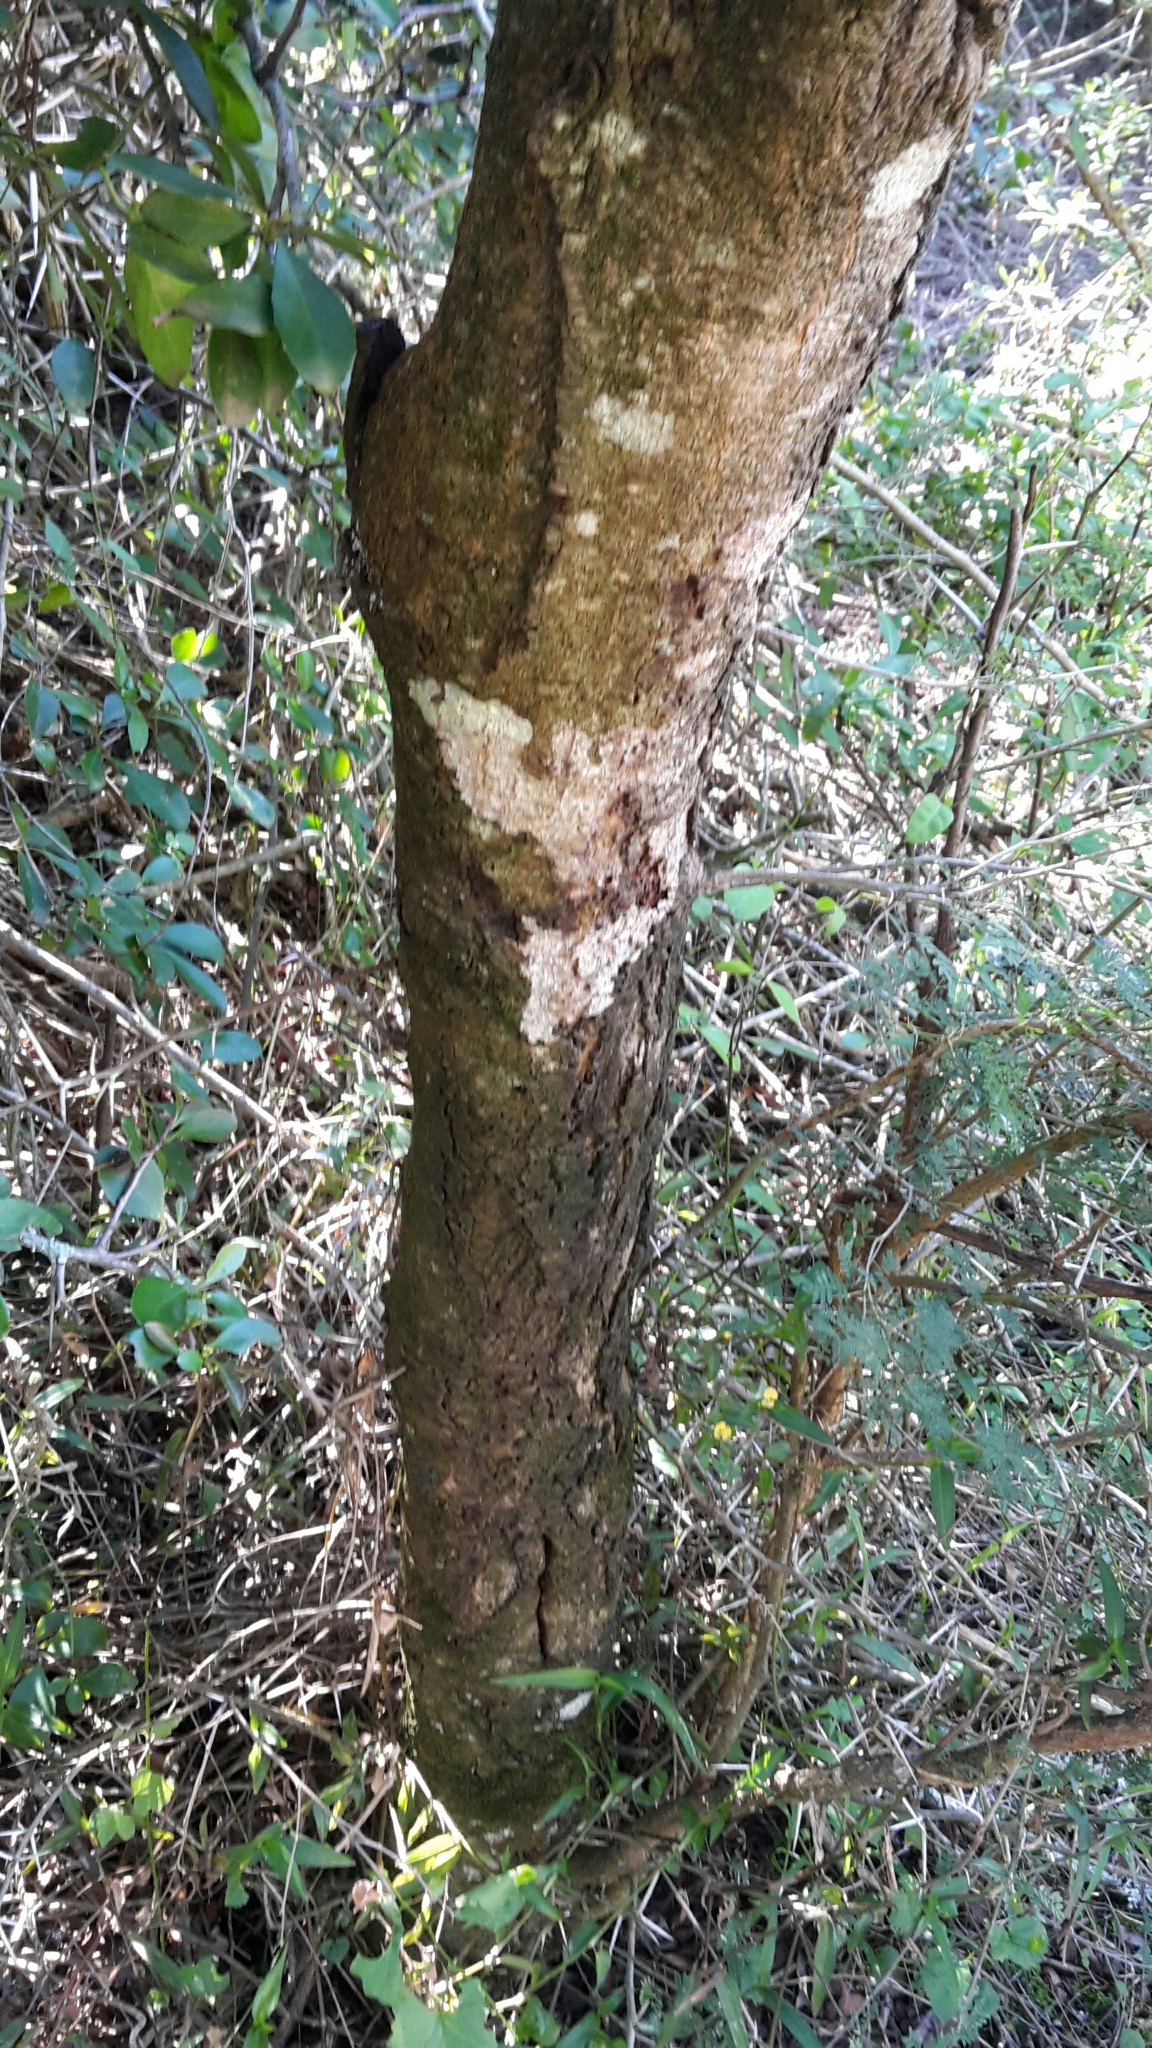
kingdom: Plantae
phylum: Tracheophyta
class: Magnoliopsida
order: Fabales
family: Fabaceae
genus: Vachellia
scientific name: Vachellia karroo
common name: Sweet thorn
